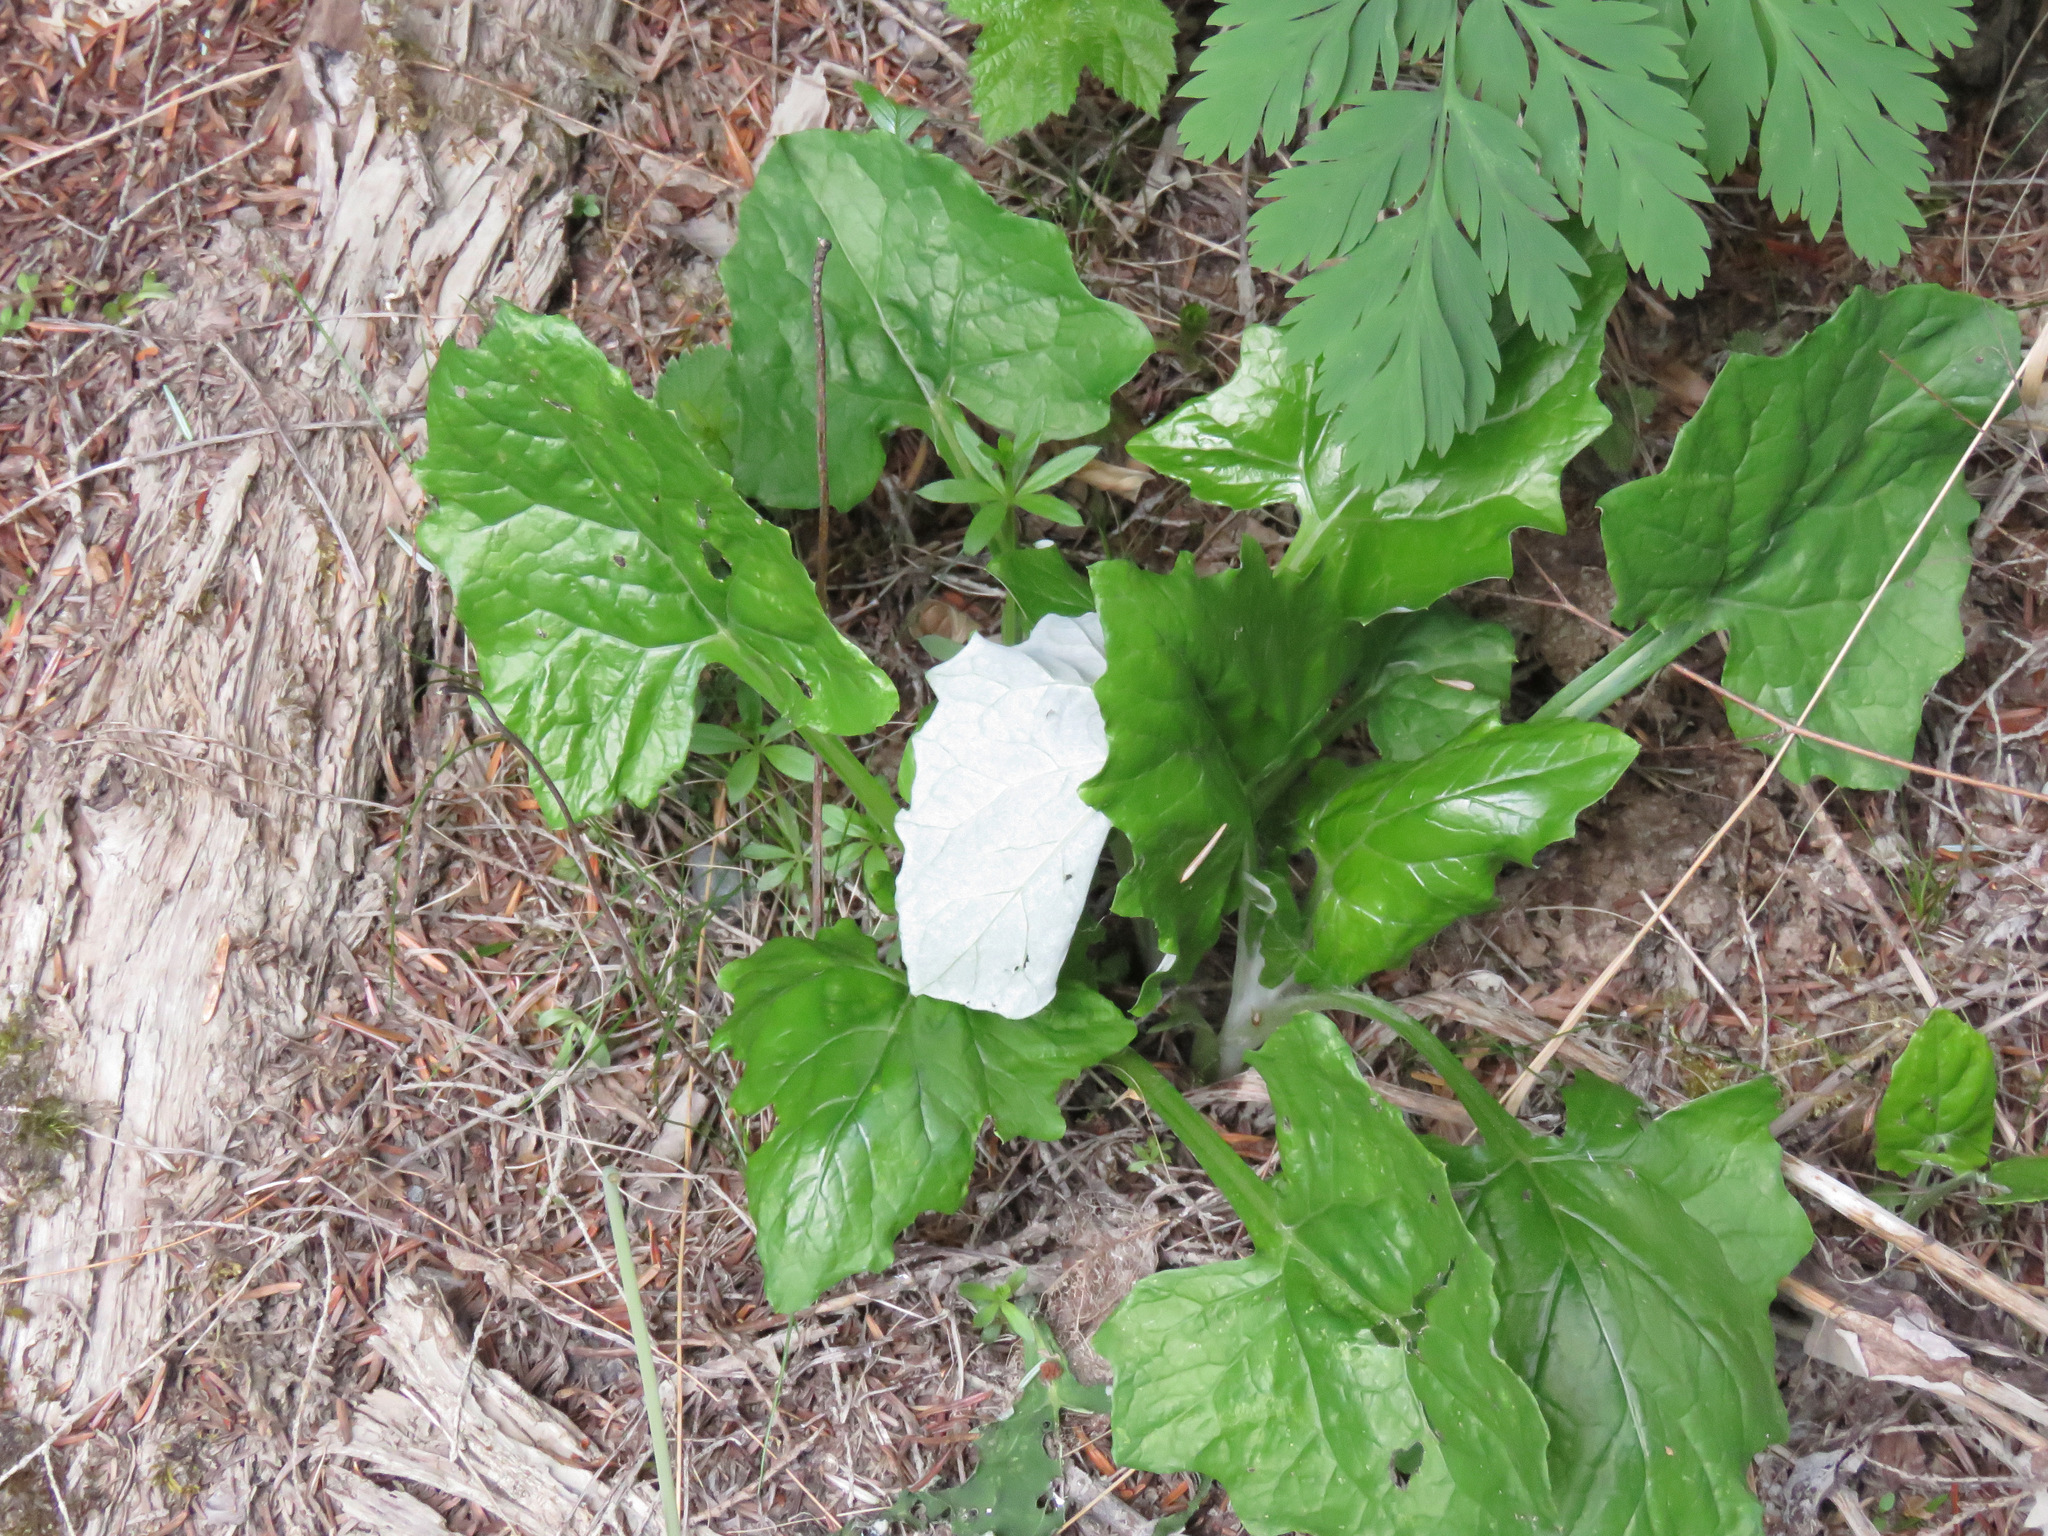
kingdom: Plantae
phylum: Tracheophyta
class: Magnoliopsida
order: Asterales
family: Asteraceae
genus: Adenocaulon
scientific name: Adenocaulon bicolor
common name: Trailplant
